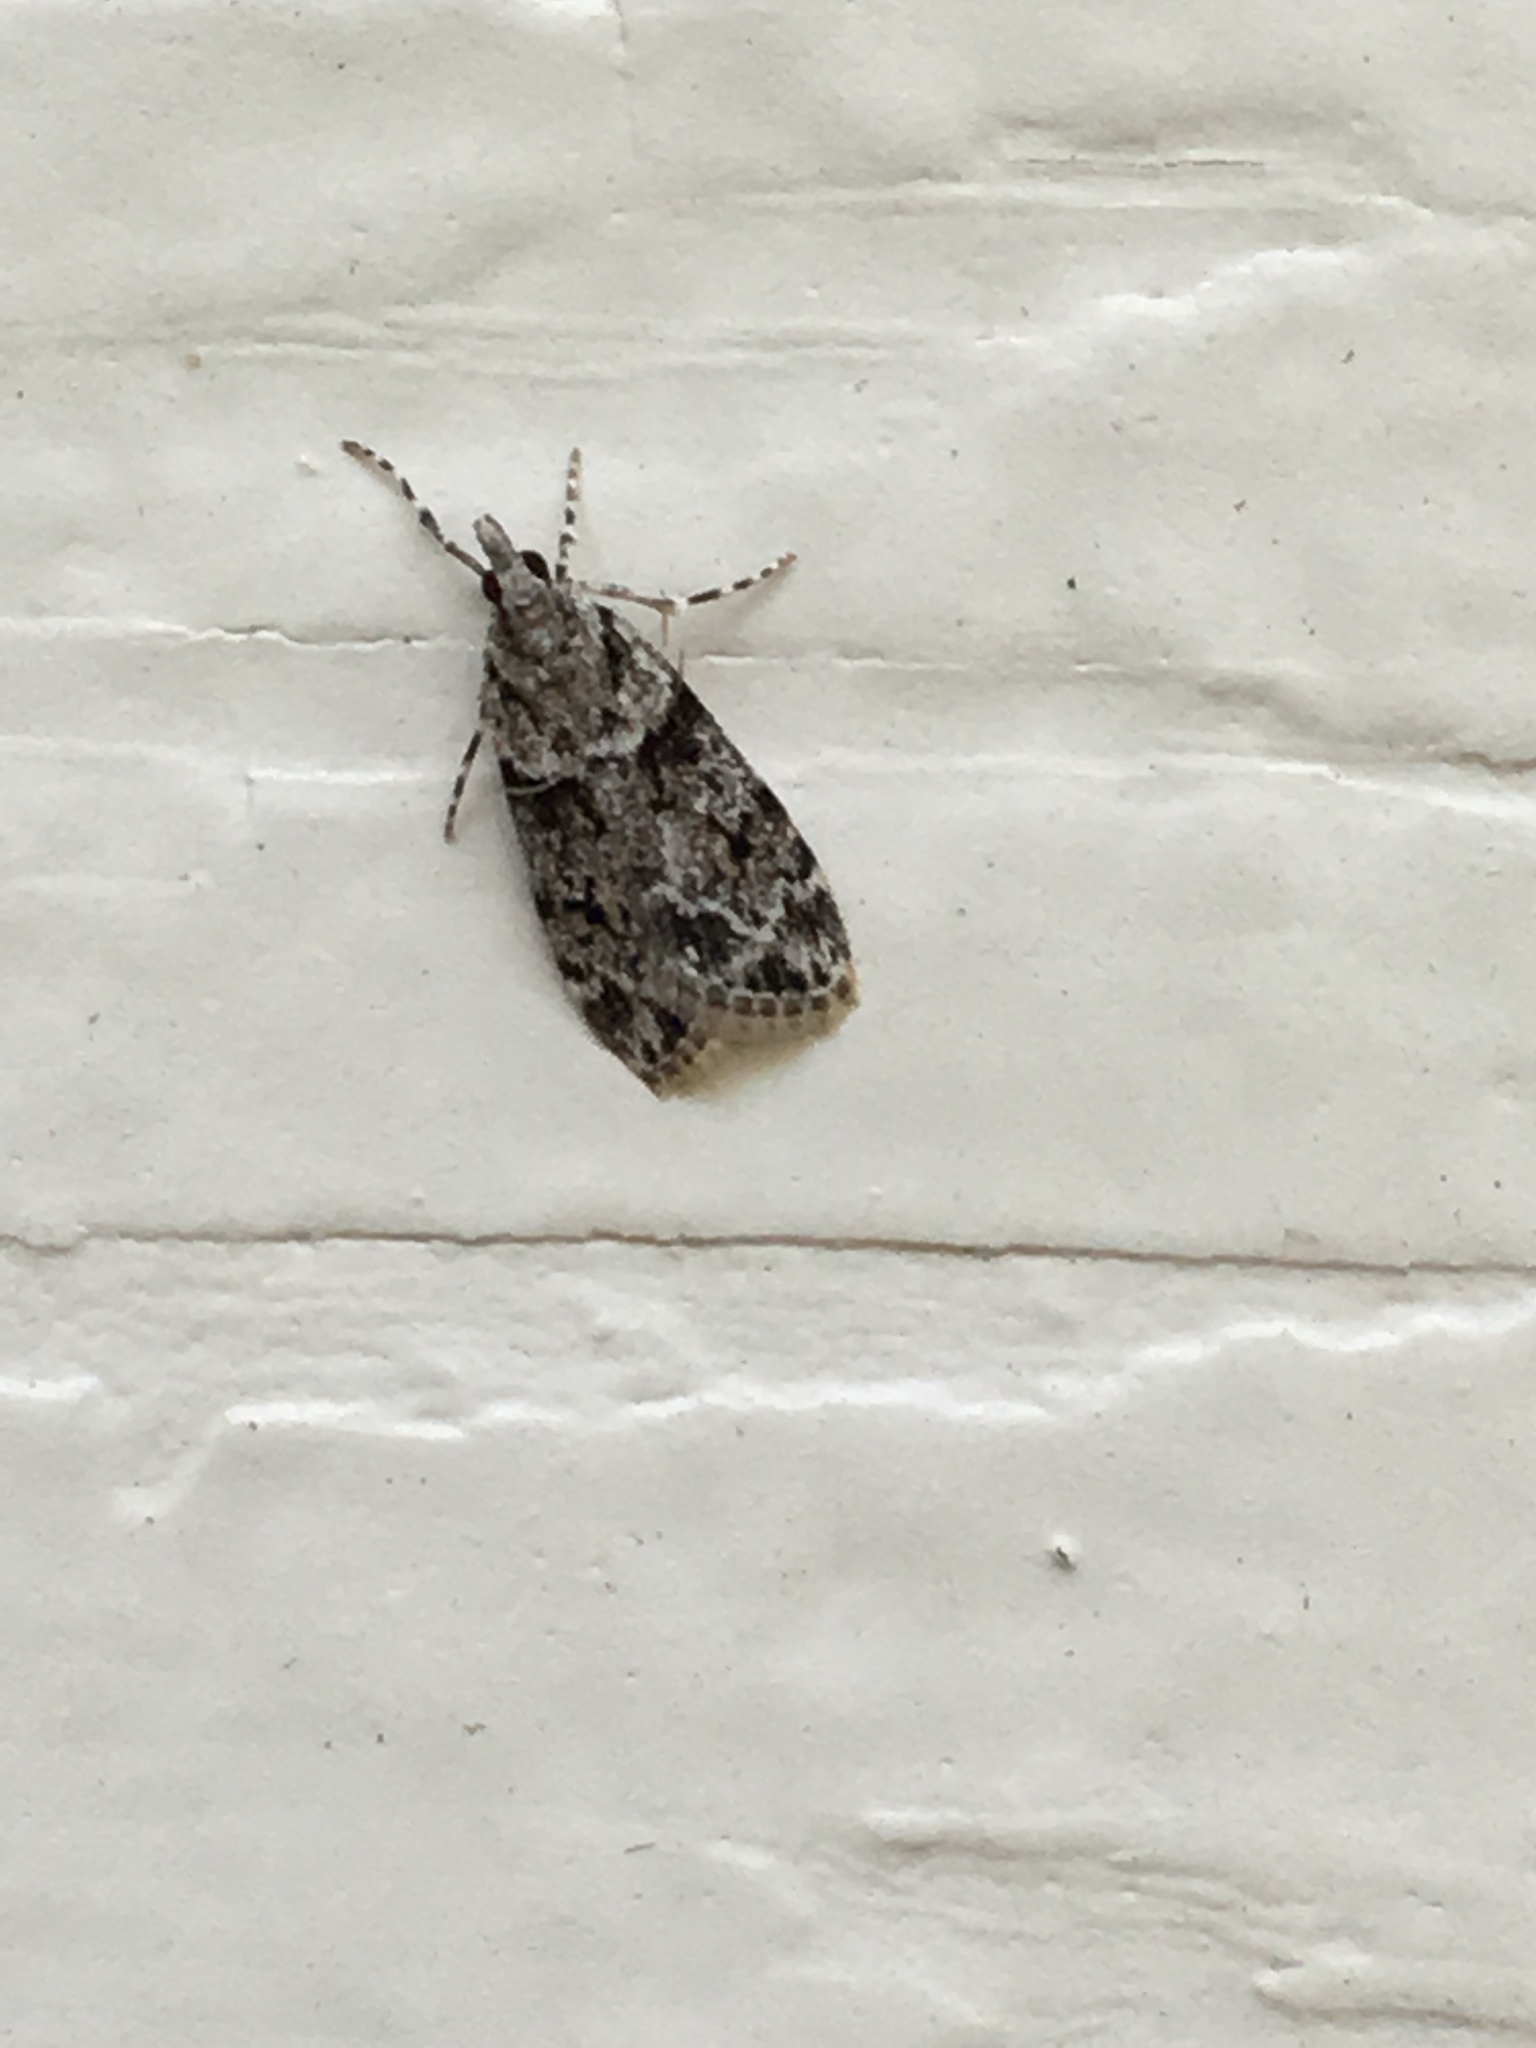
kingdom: Animalia
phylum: Arthropoda
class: Insecta
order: Lepidoptera
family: Crambidae
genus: Scoparia
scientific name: Scoparia biplagialis
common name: Double-striped scoparia moth
